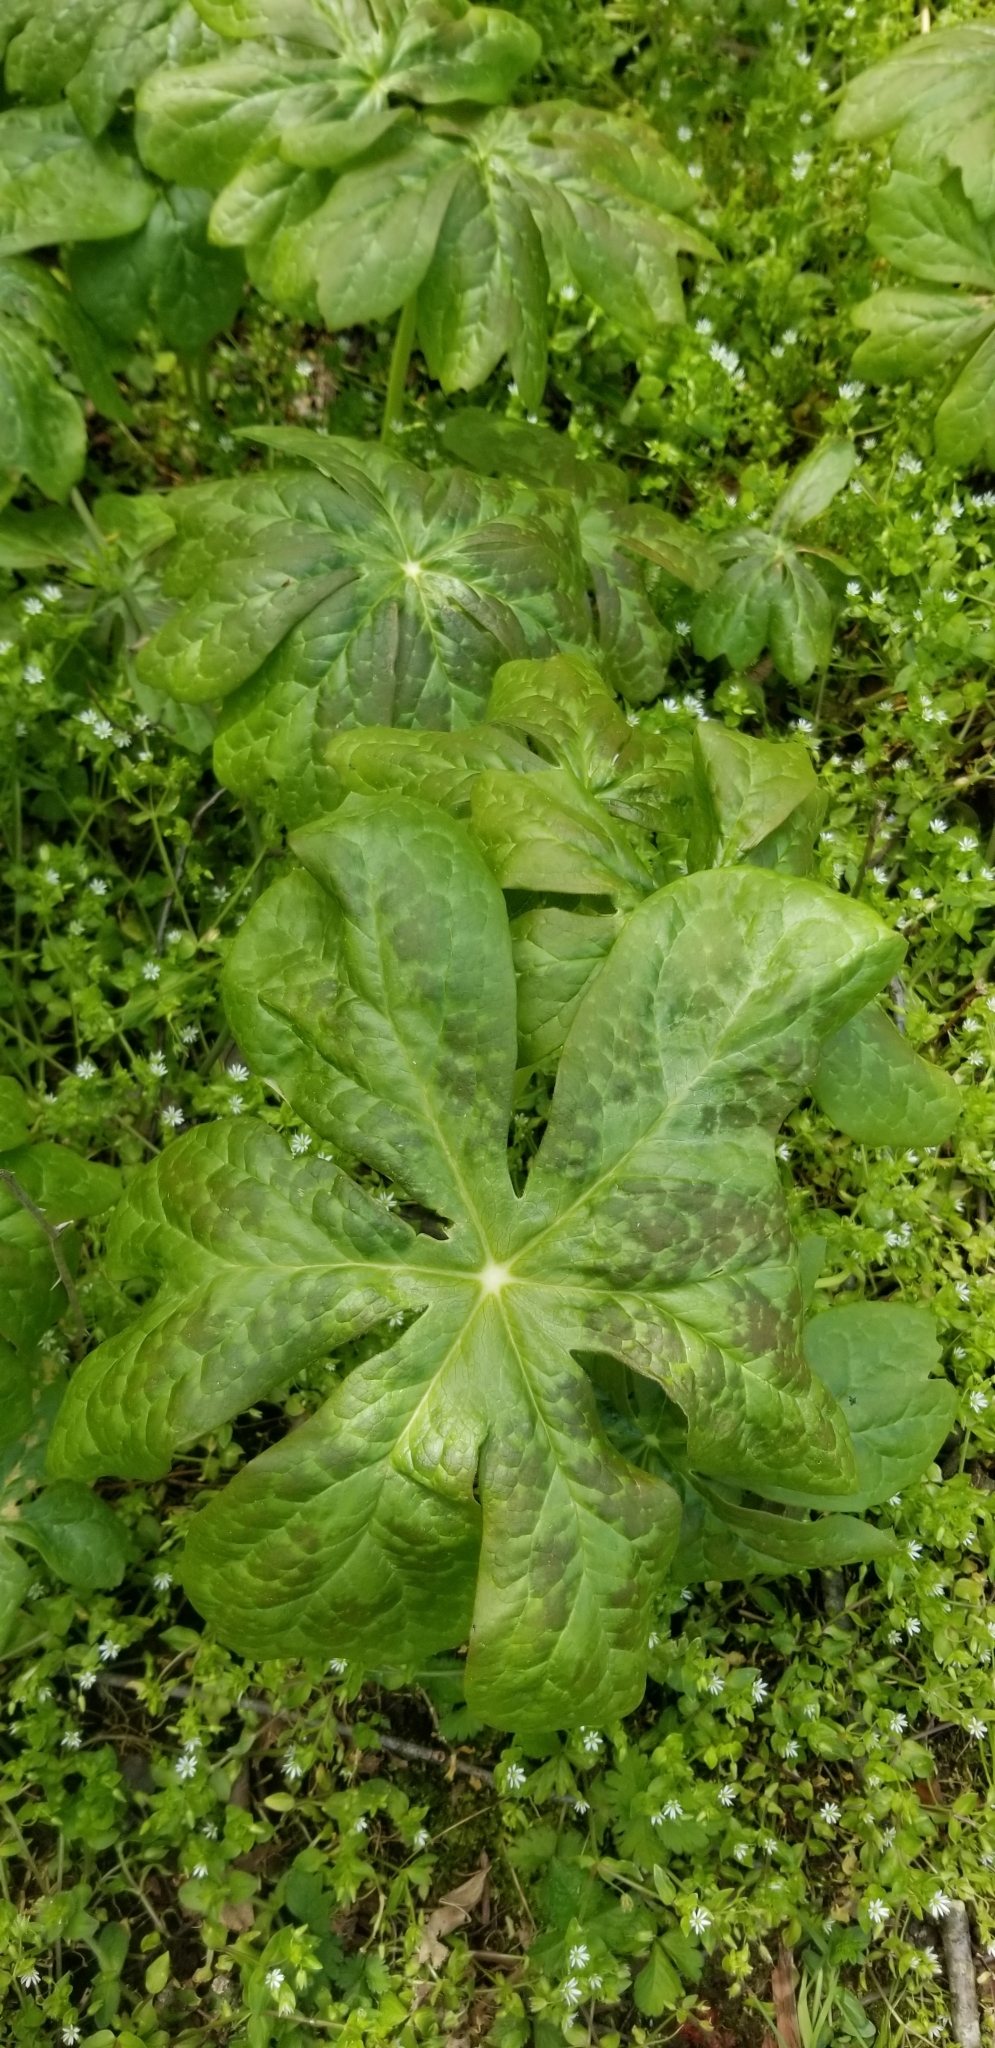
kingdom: Plantae
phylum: Tracheophyta
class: Magnoliopsida
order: Ranunculales
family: Berberidaceae
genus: Podophyllum
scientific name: Podophyllum peltatum
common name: Wild mandrake
